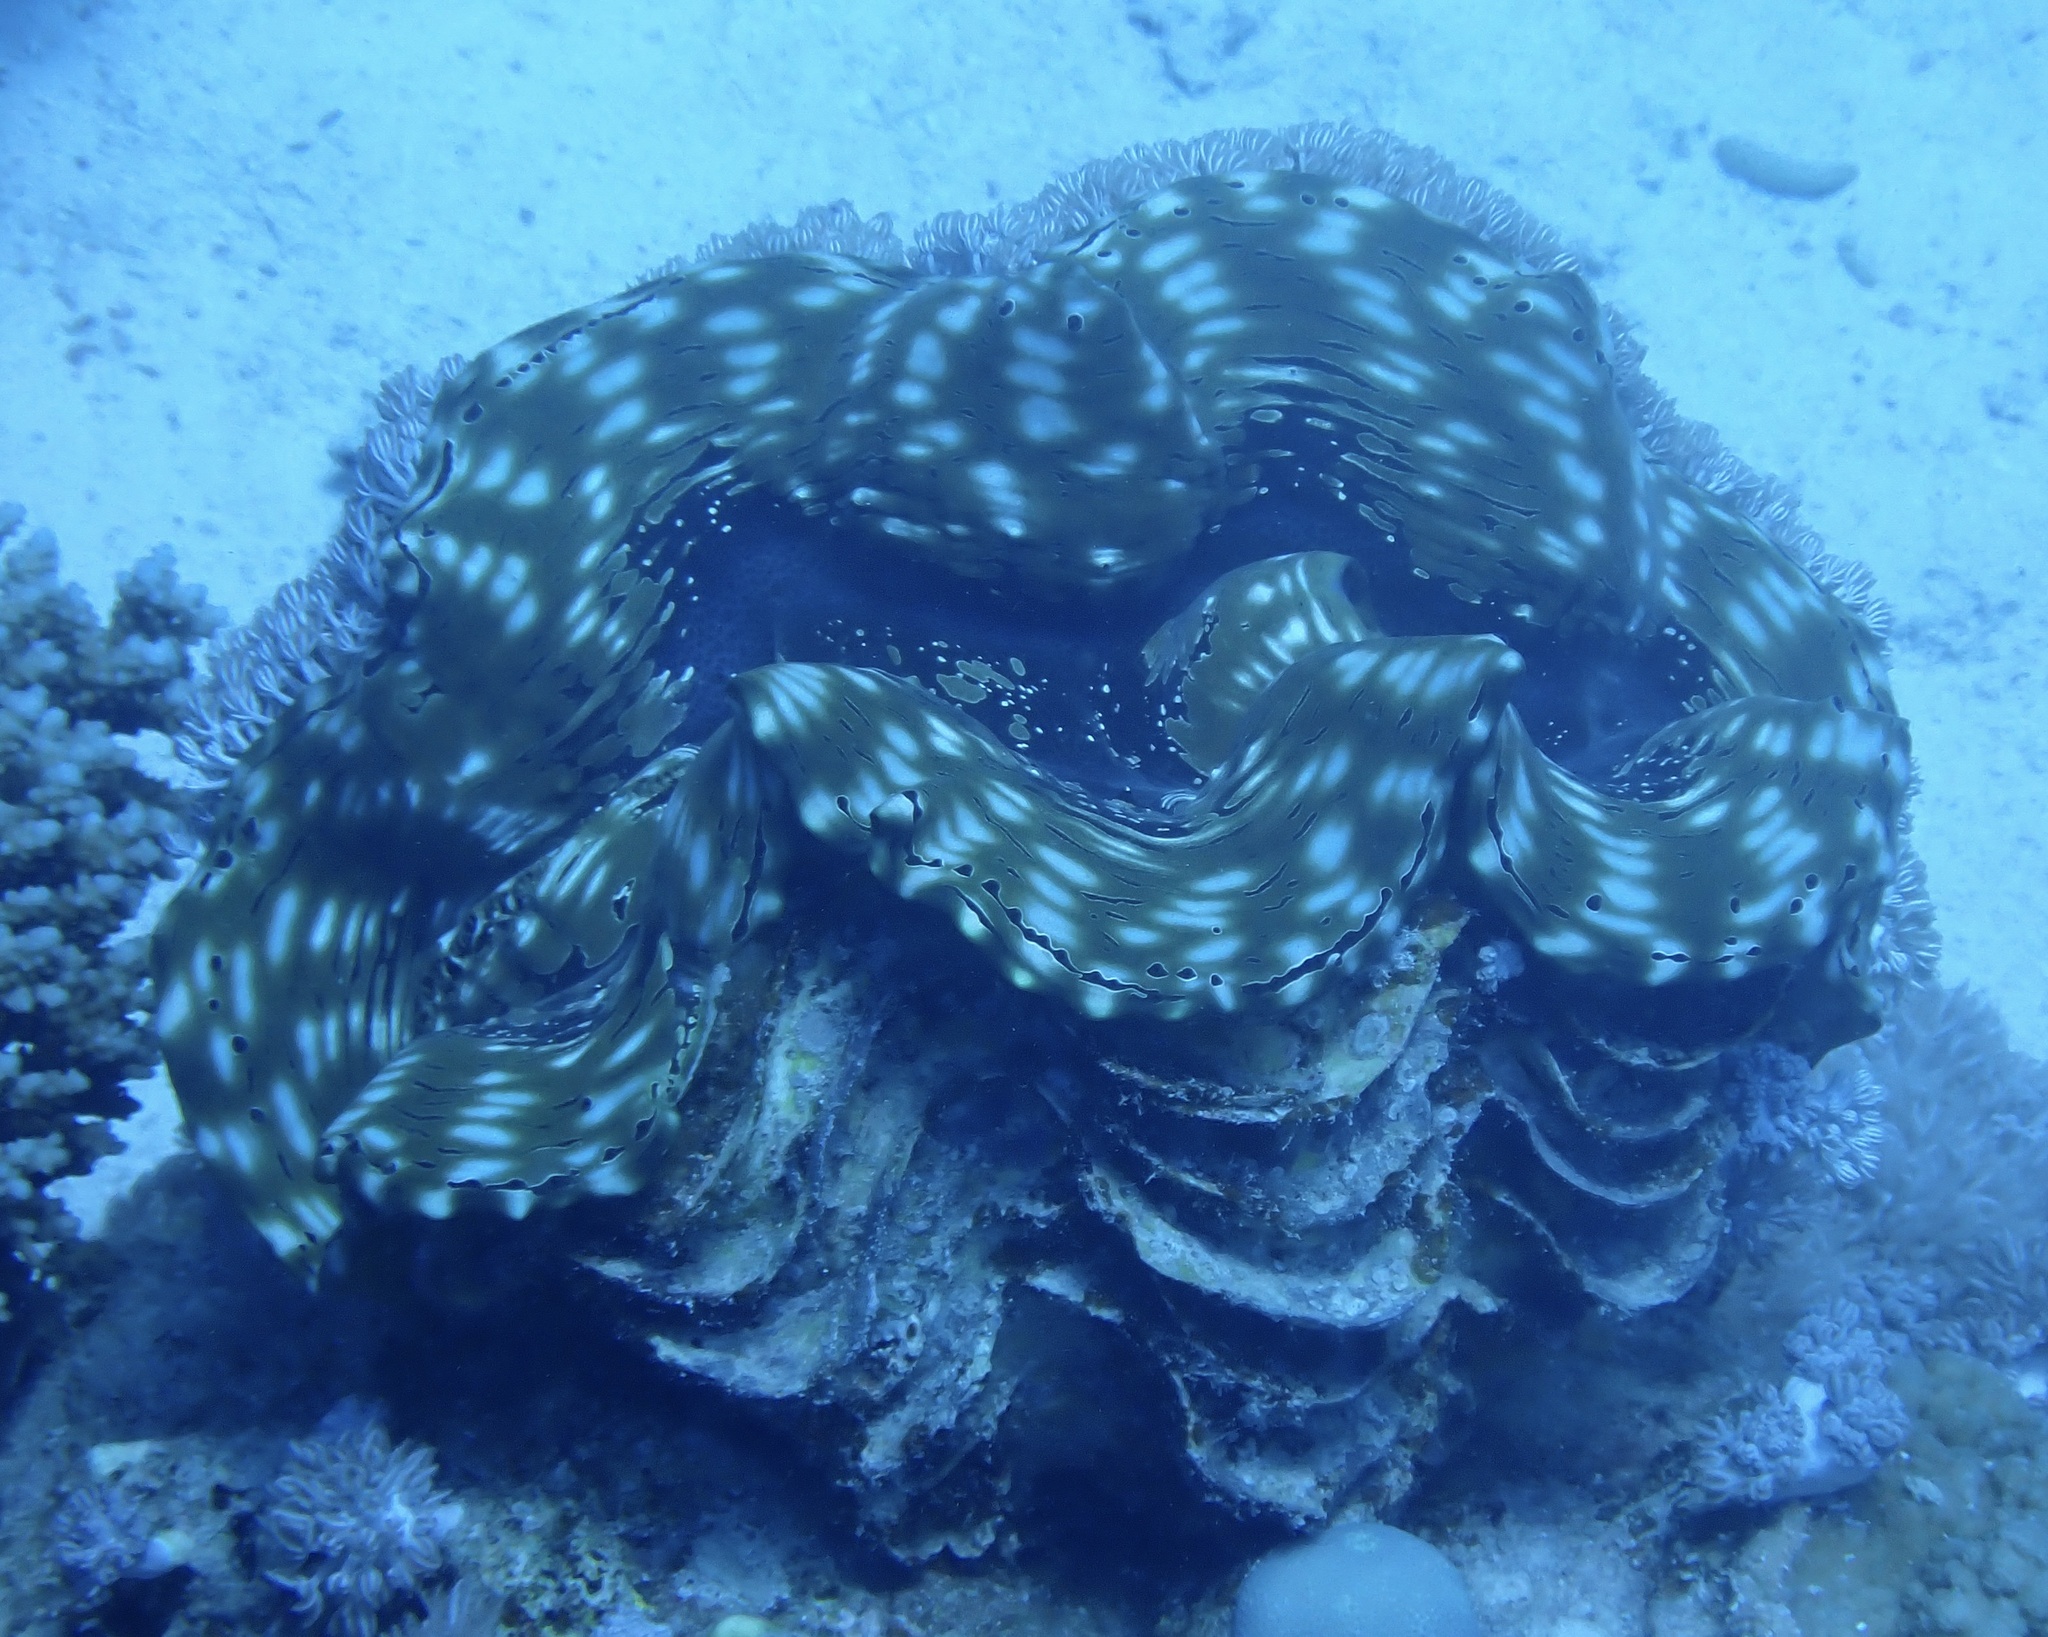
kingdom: Animalia
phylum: Mollusca
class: Bivalvia
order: Cardiida
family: Cardiidae
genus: Tridacna
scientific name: Tridacna squamosa
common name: Fluted clam
